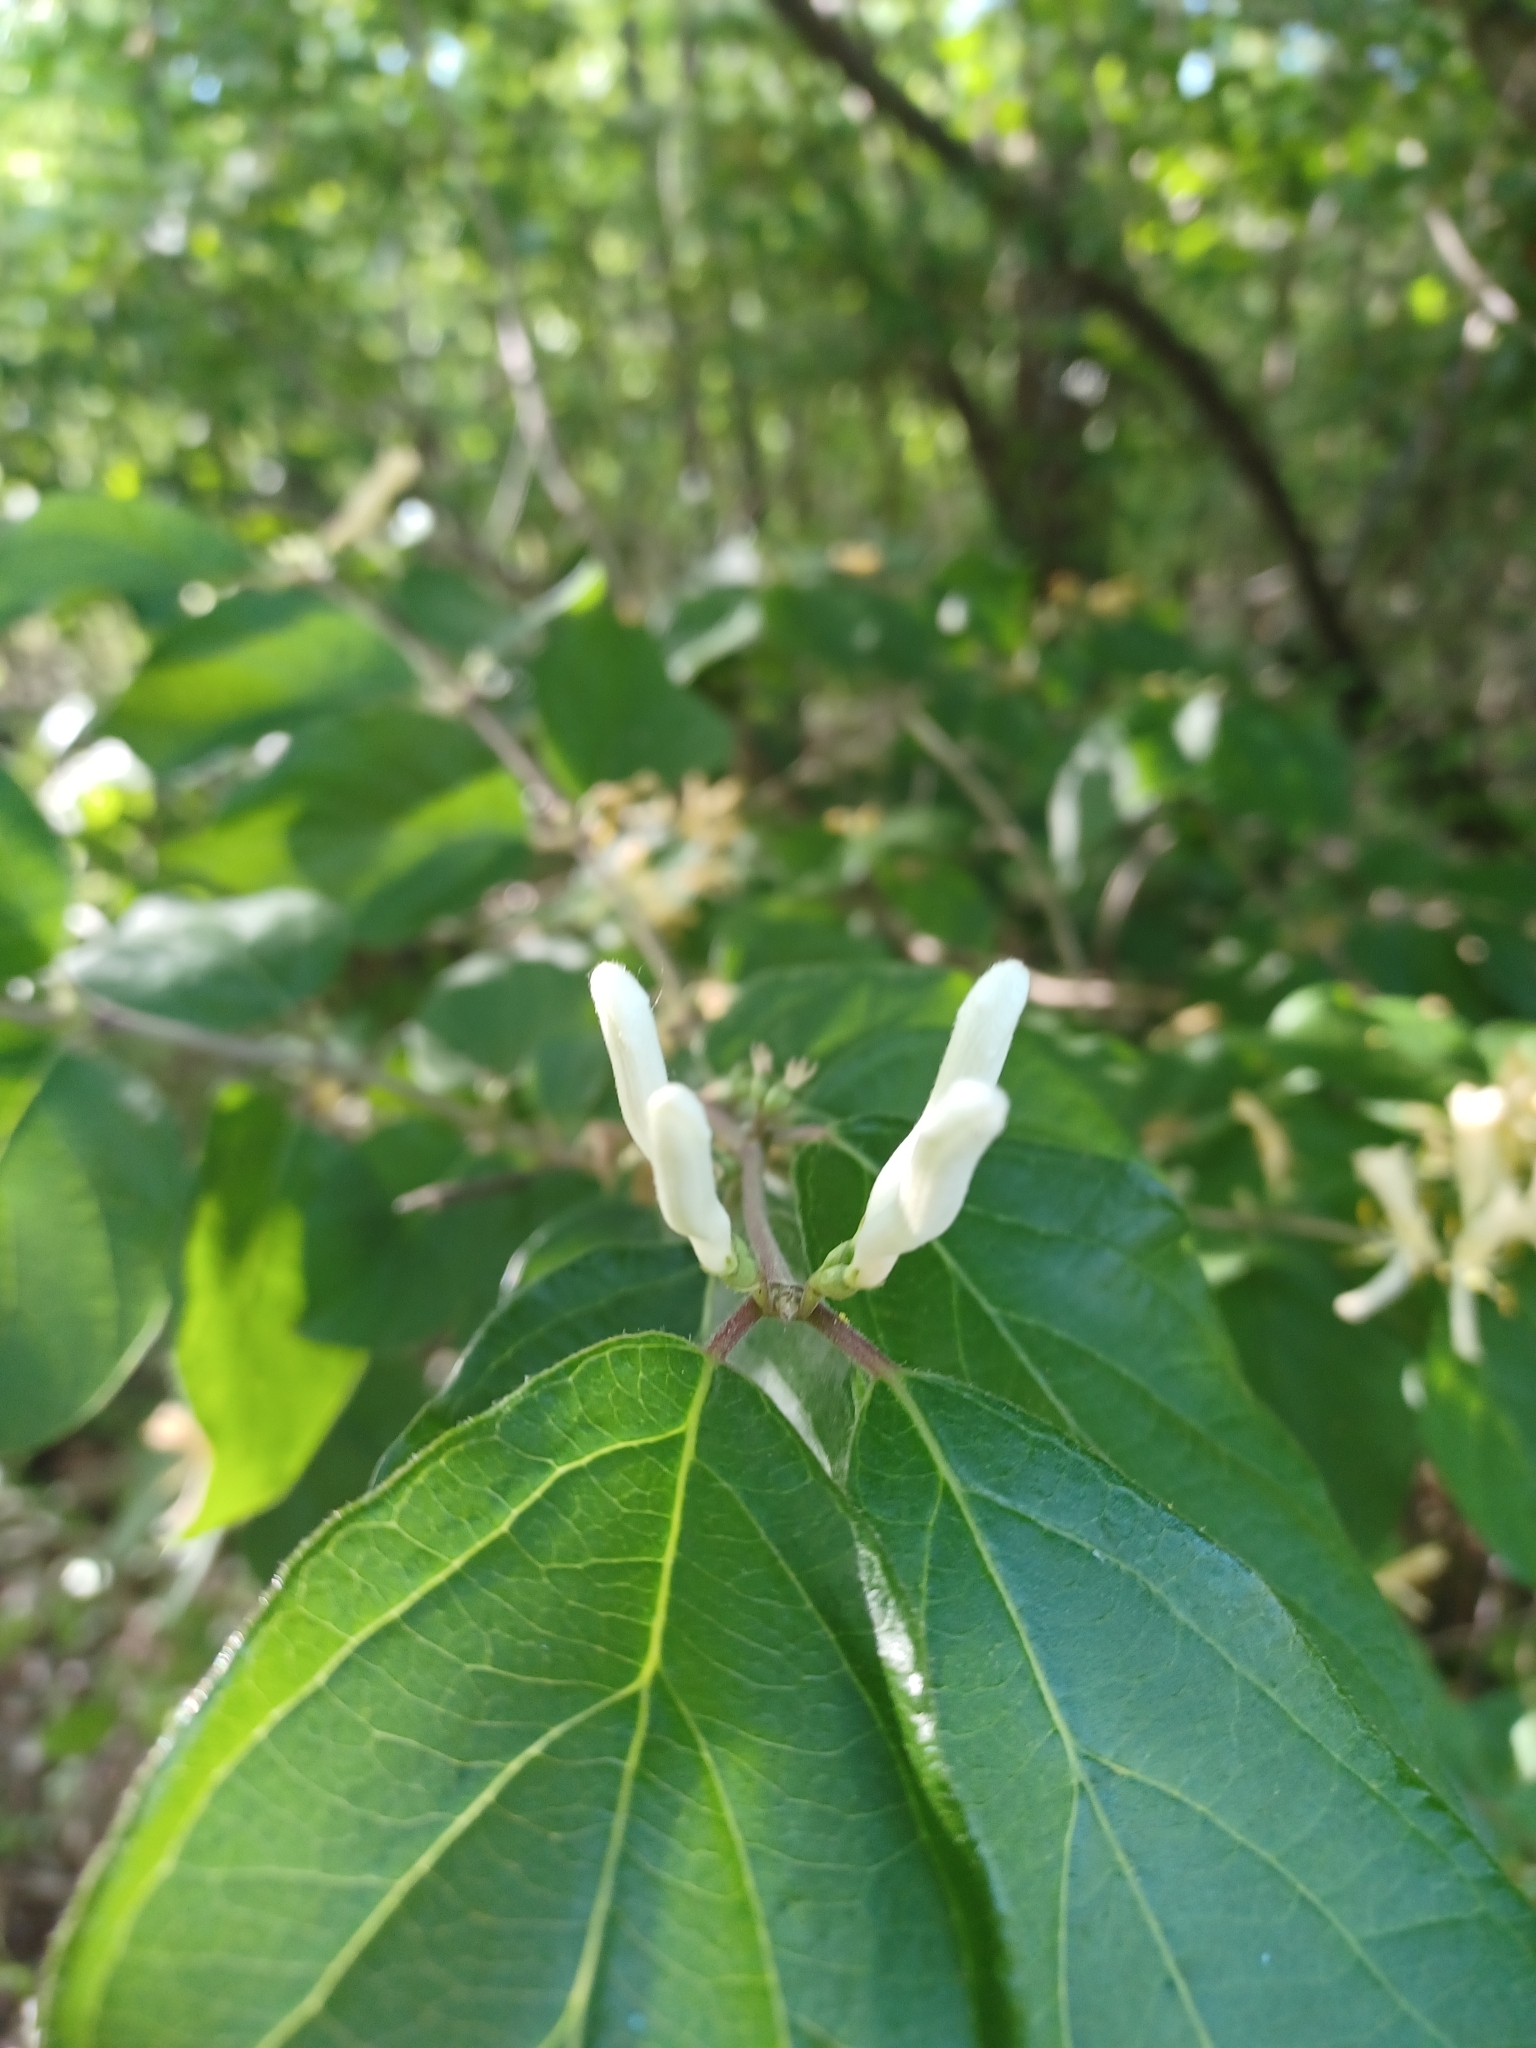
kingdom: Plantae
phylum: Tracheophyta
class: Magnoliopsida
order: Dipsacales
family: Caprifoliaceae
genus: Lonicera
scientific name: Lonicera maackii
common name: Amur honeysuckle
